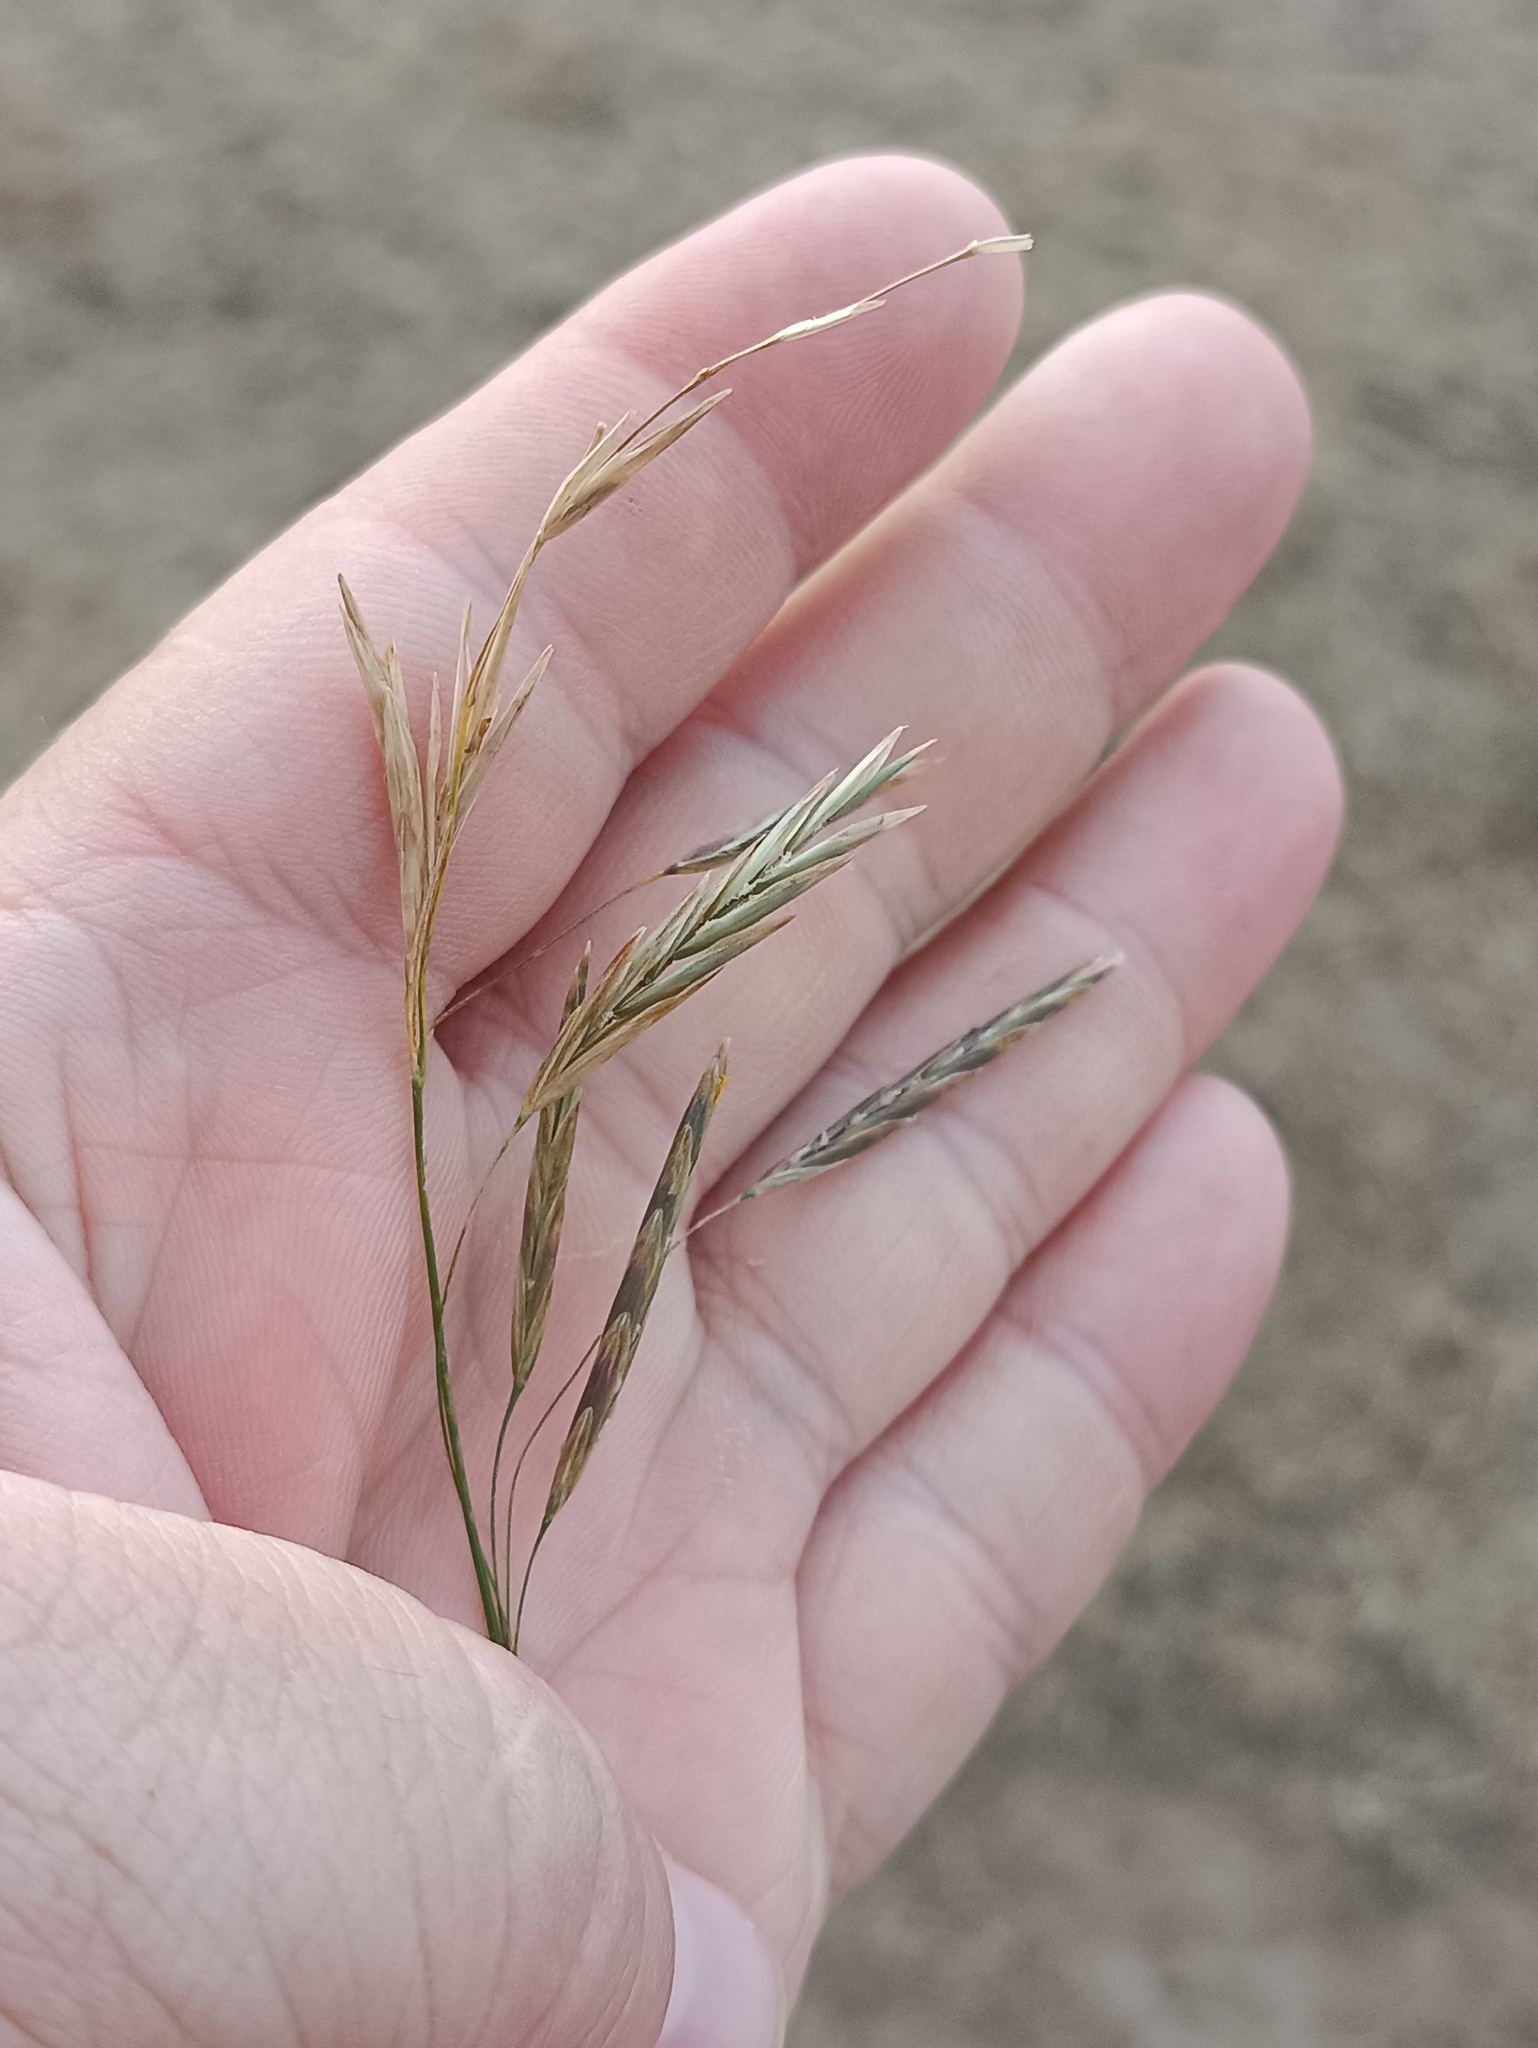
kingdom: Plantae
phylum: Tracheophyta
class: Liliopsida
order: Poales
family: Poaceae
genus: Bromus
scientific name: Bromus inermis
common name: Smooth brome
